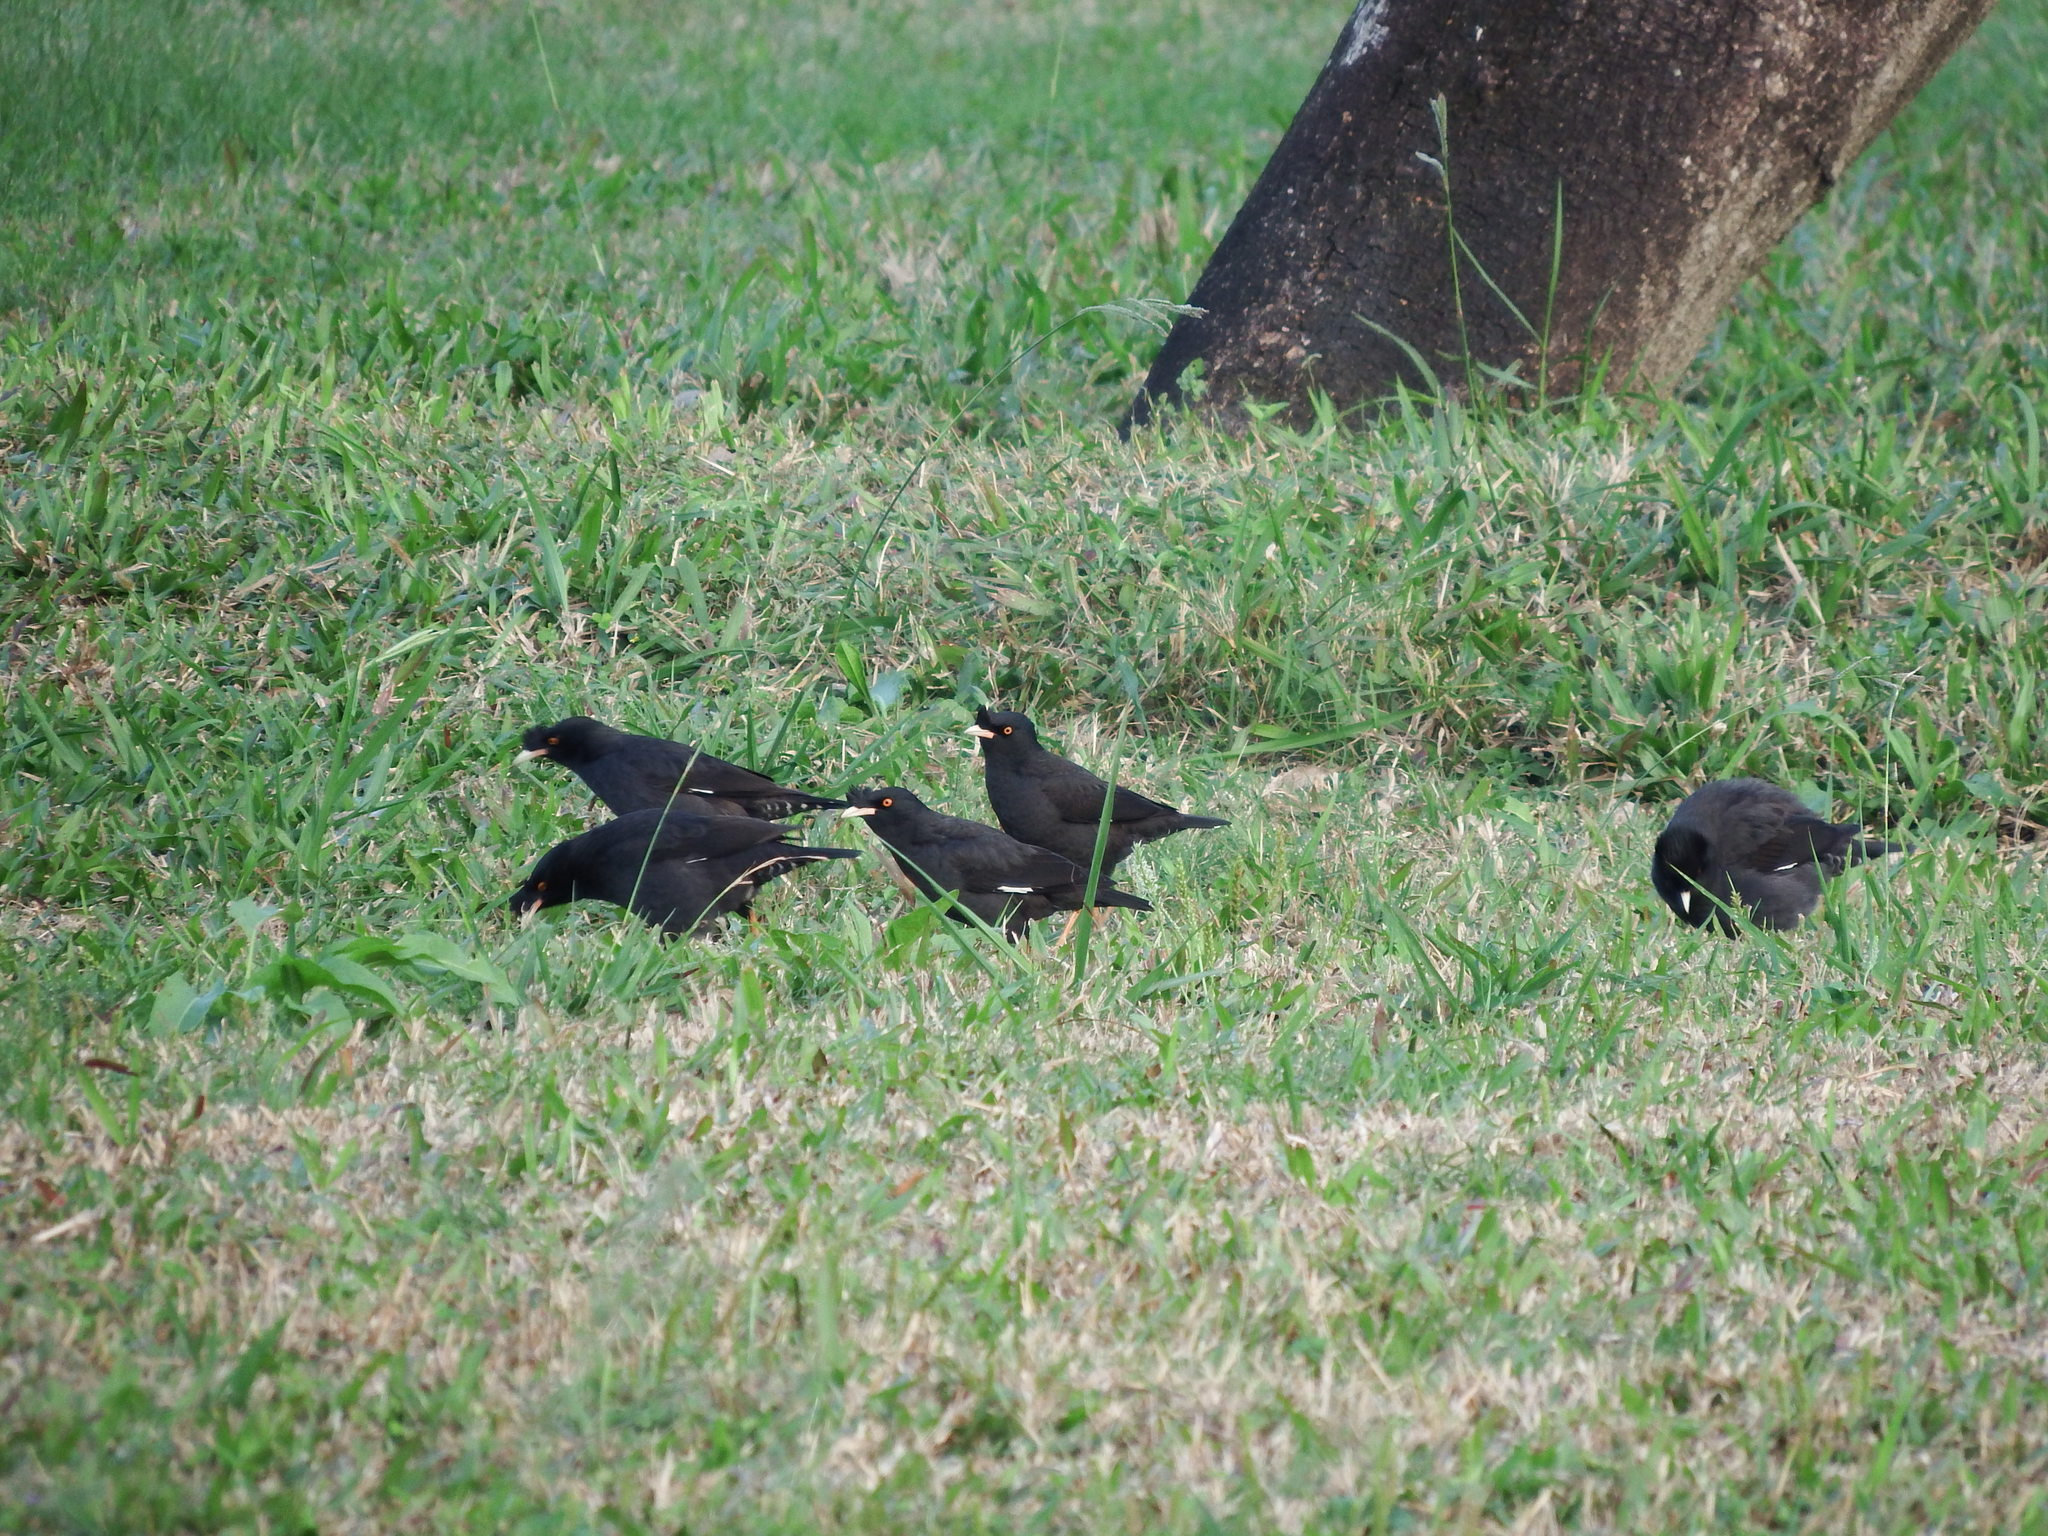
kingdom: Animalia
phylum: Chordata
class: Aves
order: Passeriformes
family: Sturnidae
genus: Acridotheres
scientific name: Acridotheres cristatellus
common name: Crested myna
